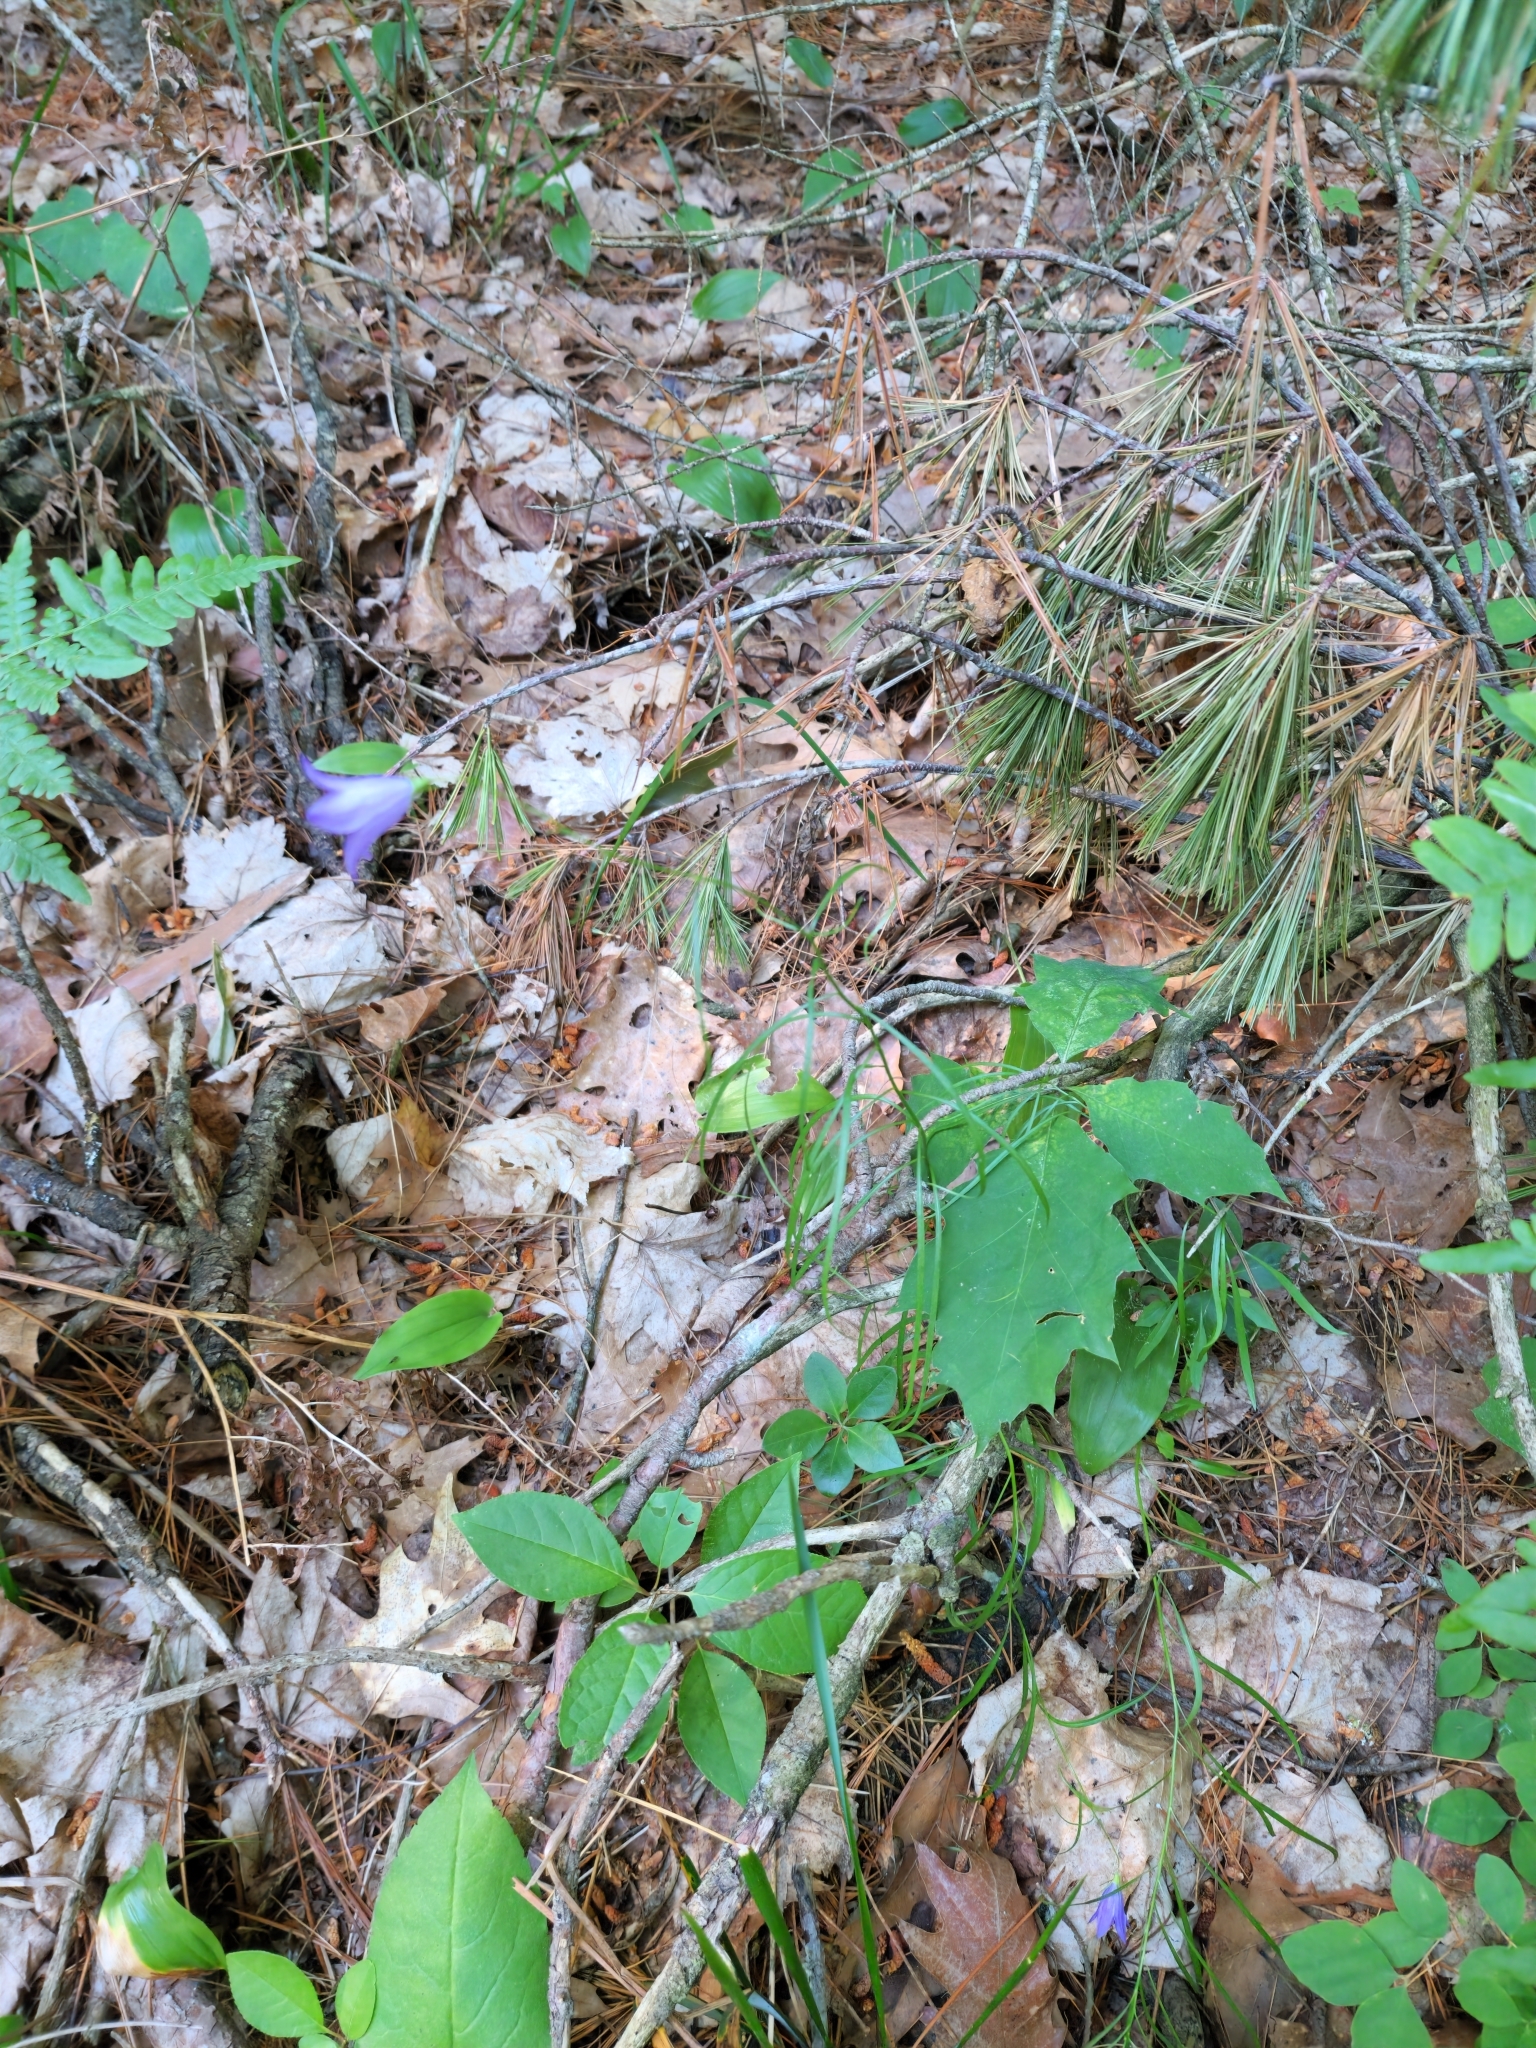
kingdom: Plantae
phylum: Tracheophyta
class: Magnoliopsida
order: Asterales
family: Campanulaceae
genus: Campanula
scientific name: Campanula intercedens
